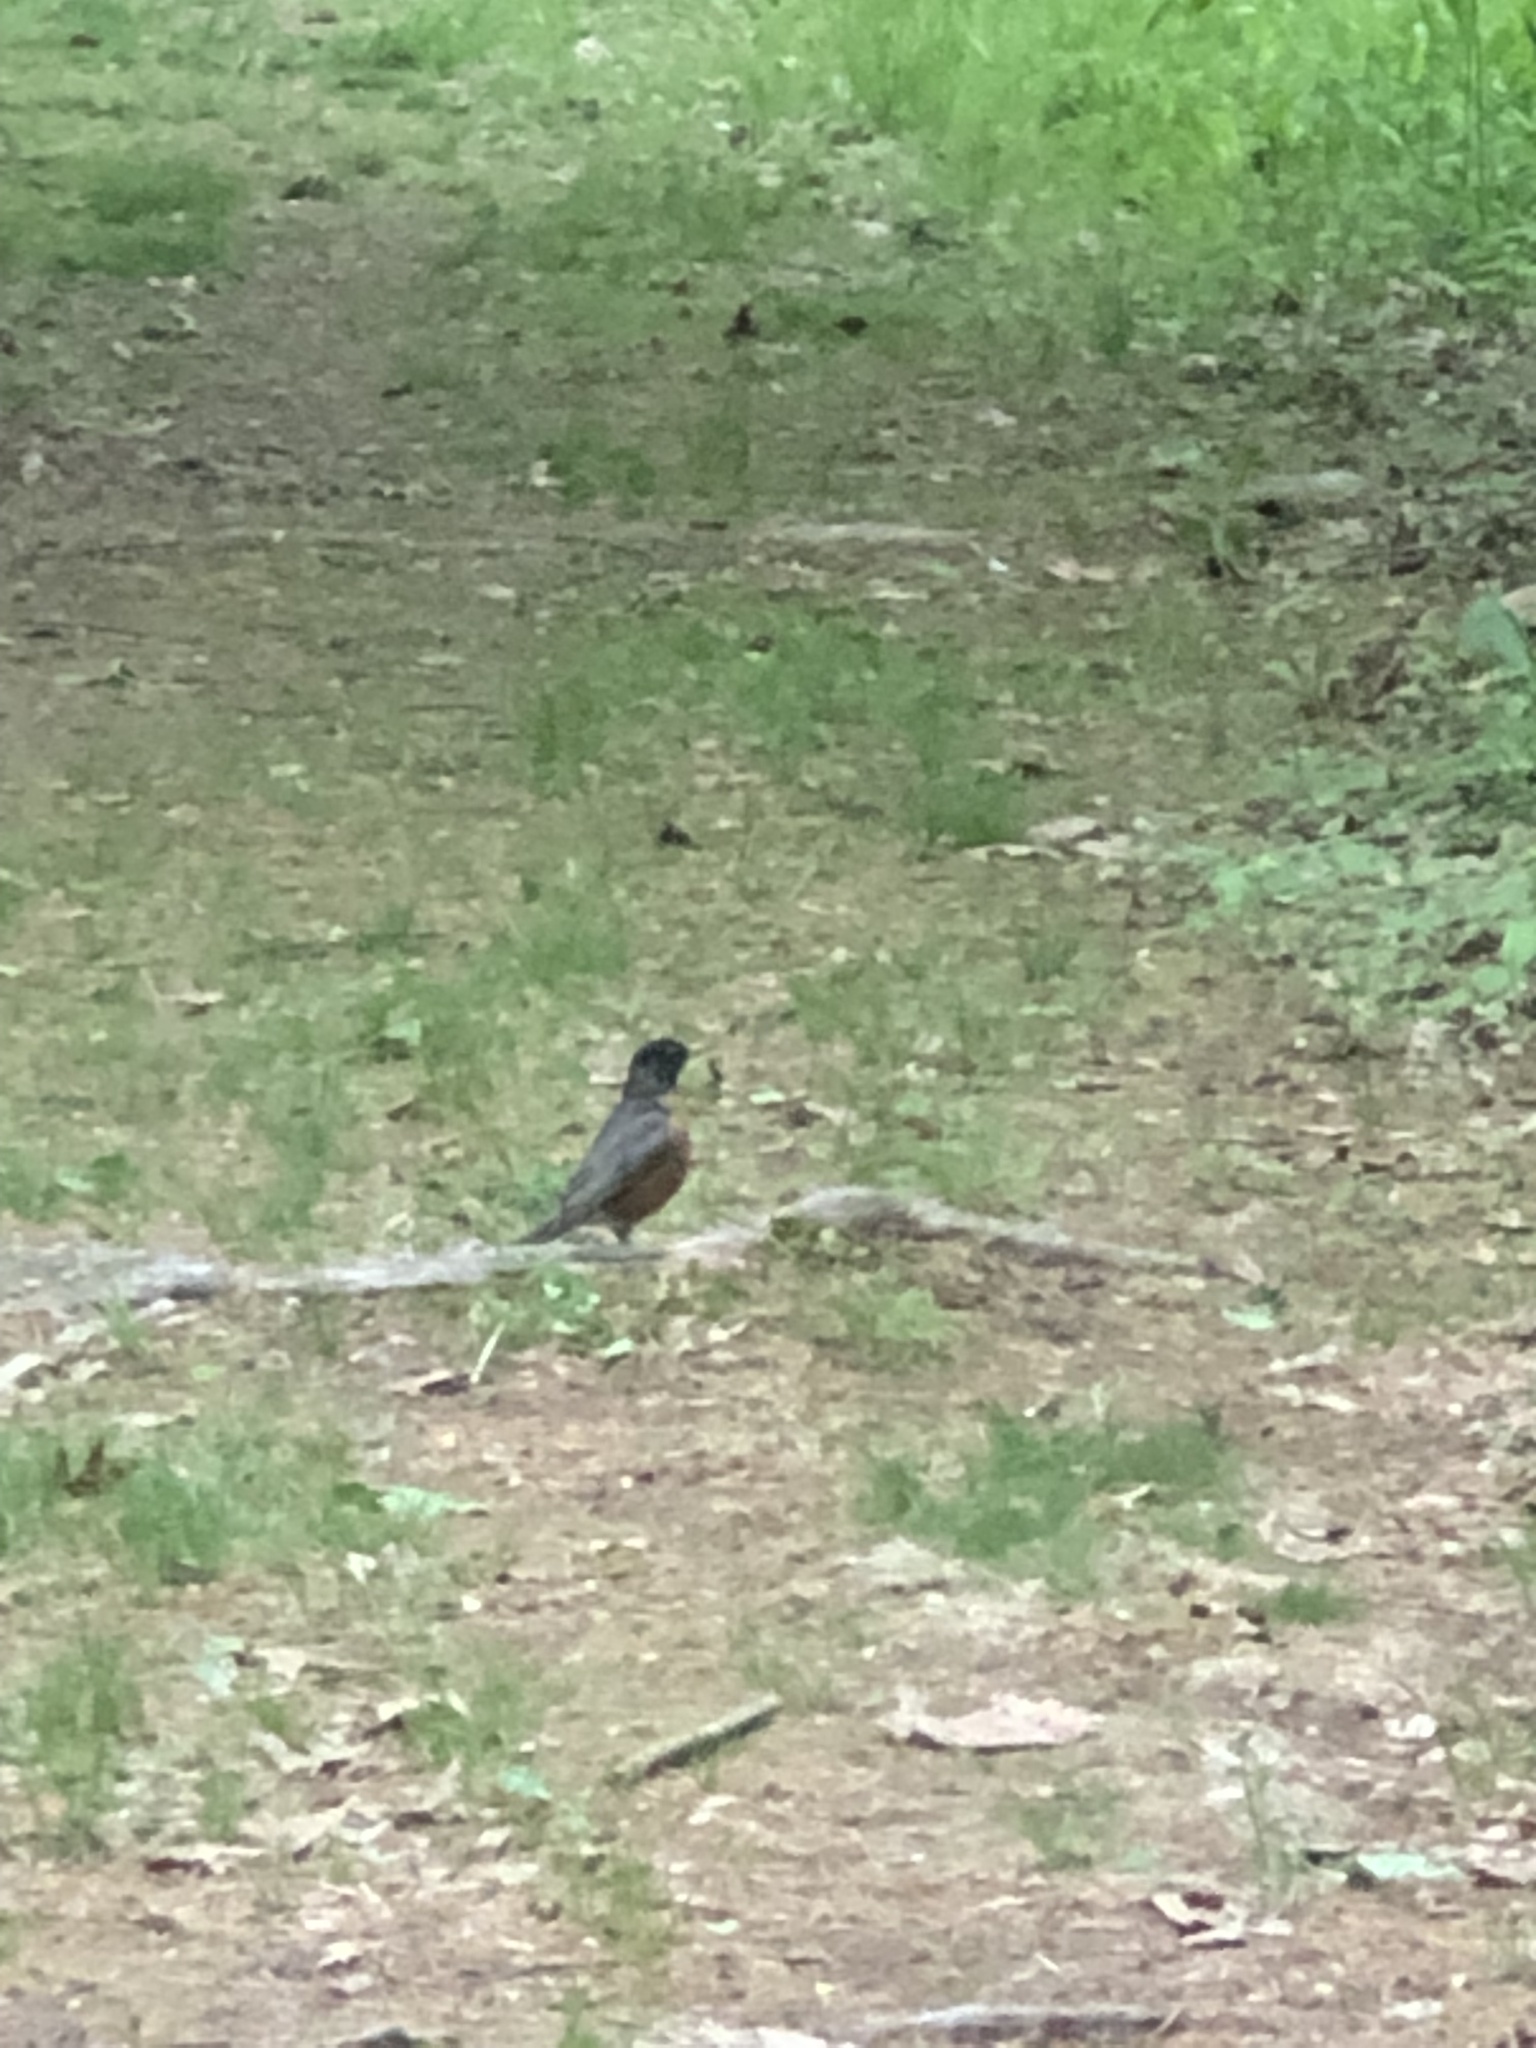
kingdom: Animalia
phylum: Chordata
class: Aves
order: Passeriformes
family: Turdidae
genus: Turdus
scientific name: Turdus migratorius
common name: American robin
